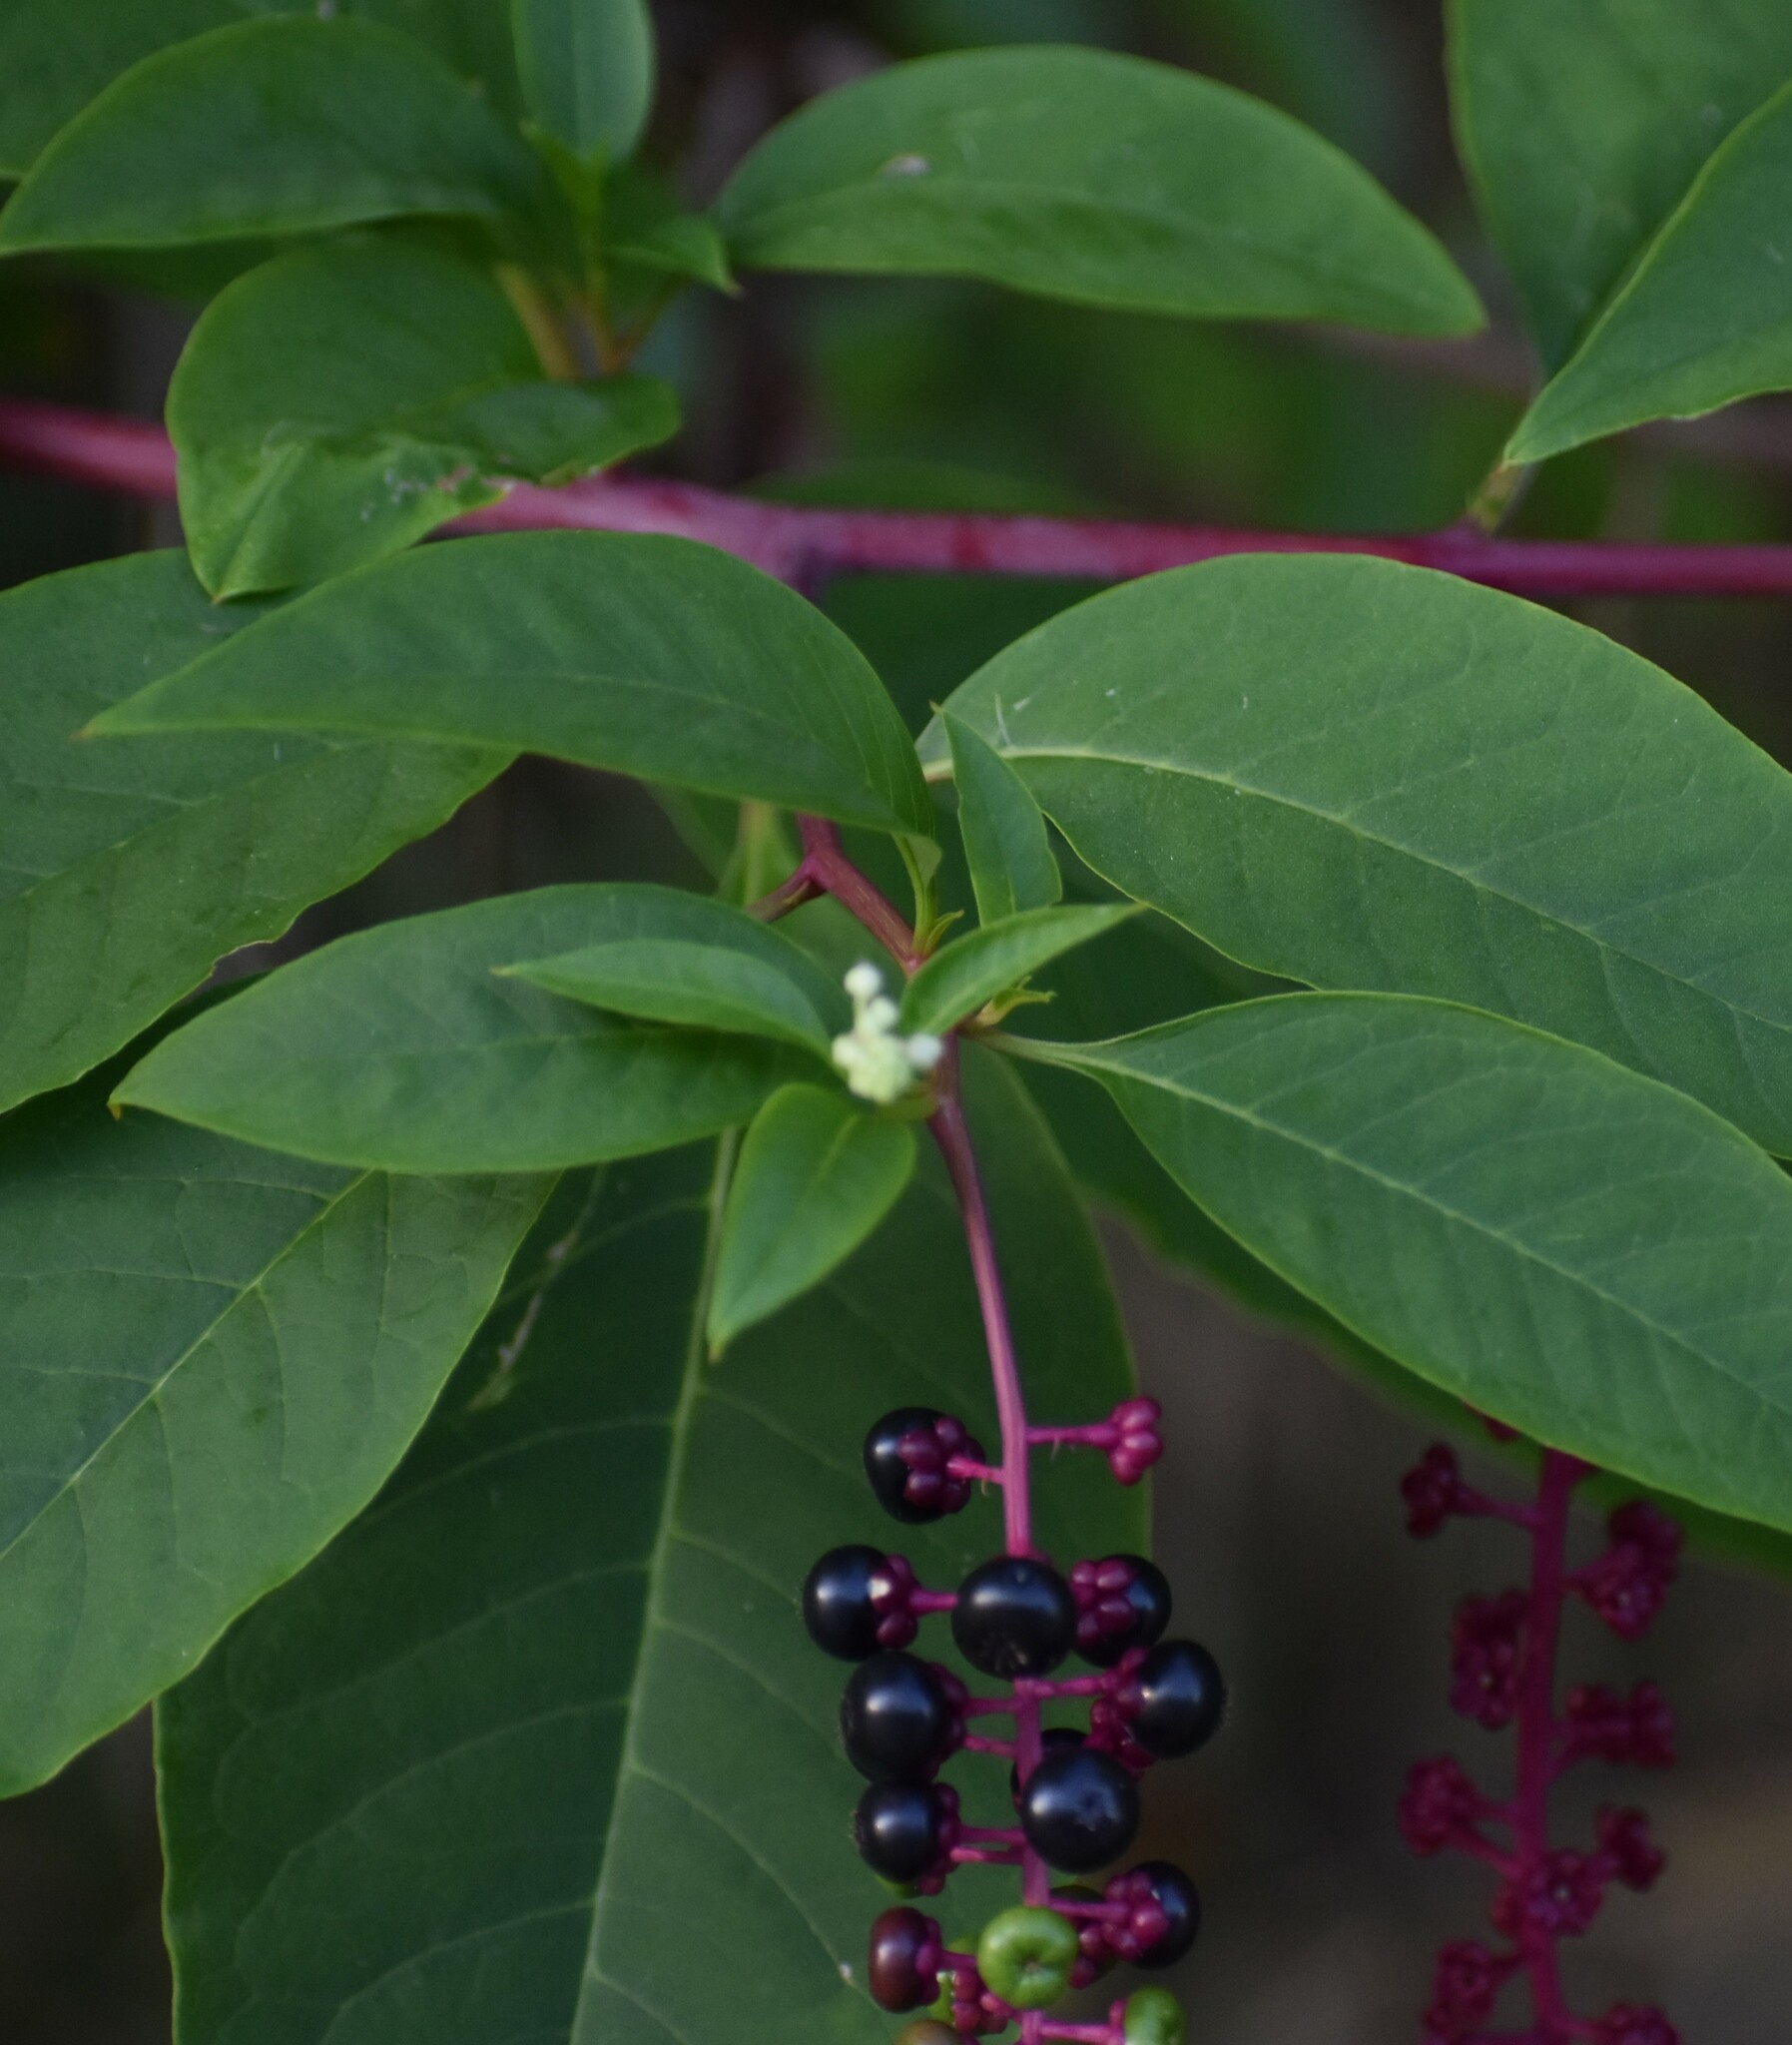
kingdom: Plantae
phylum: Tracheophyta
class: Magnoliopsida
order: Caryophyllales
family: Phytolaccaceae
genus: Phytolacca
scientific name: Phytolacca americana
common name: American pokeweed
